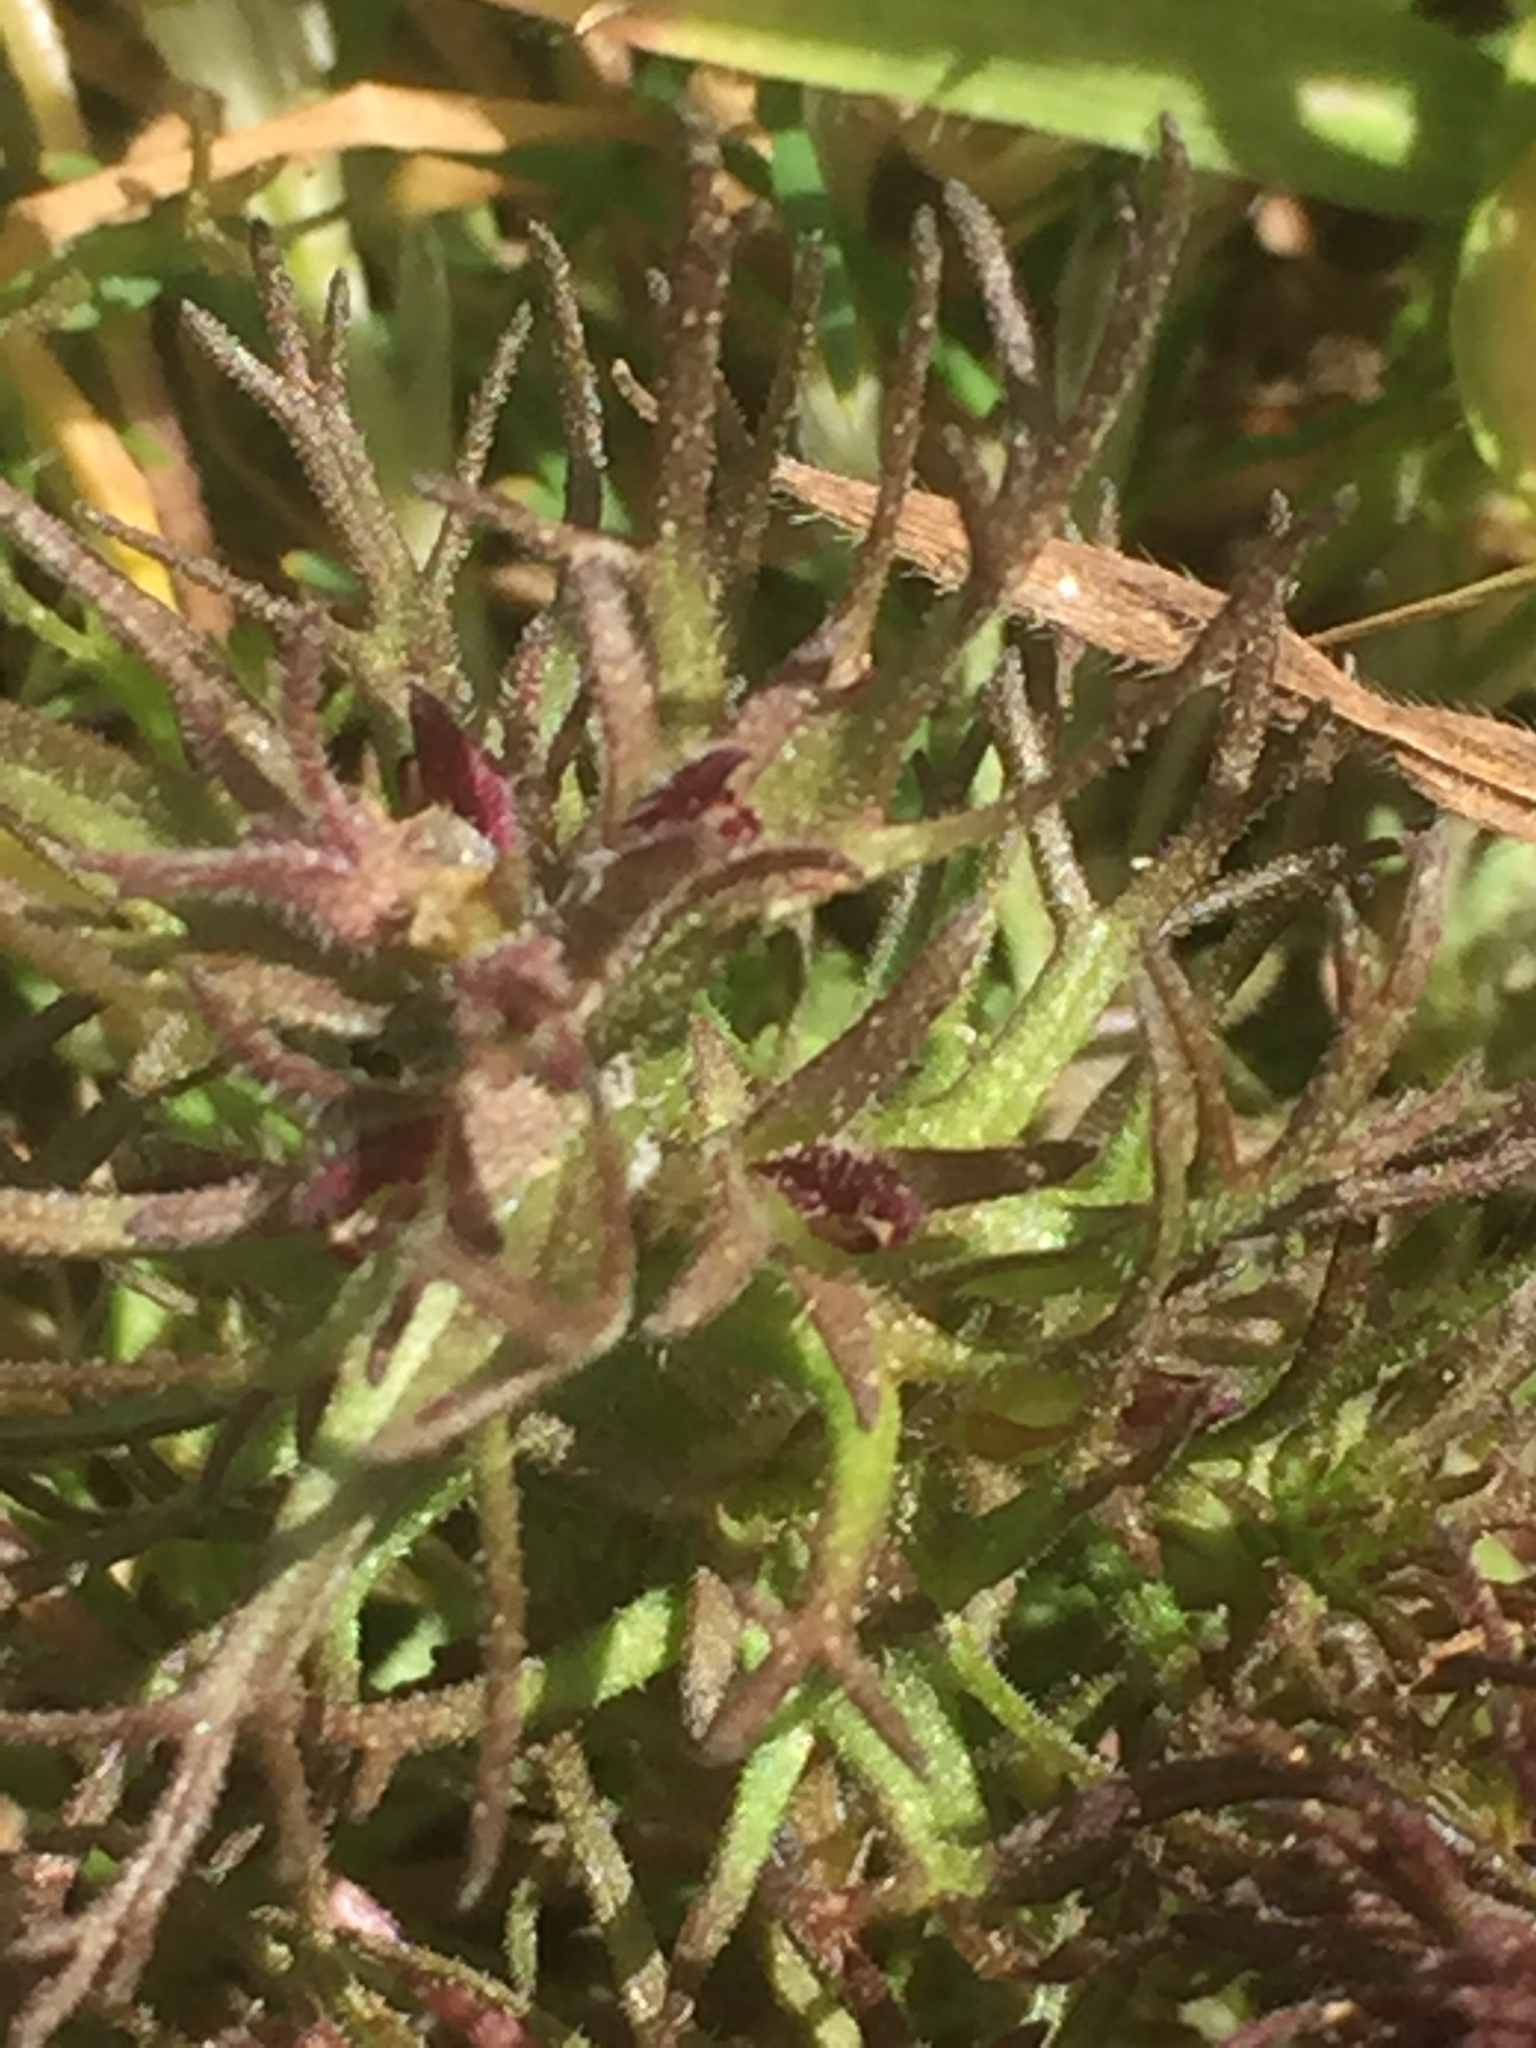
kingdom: Plantae
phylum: Tracheophyta
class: Magnoliopsida
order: Lamiales
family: Orobanchaceae
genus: Triphysaria
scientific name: Triphysaria pusilla
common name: Dwarf false owl-clover
